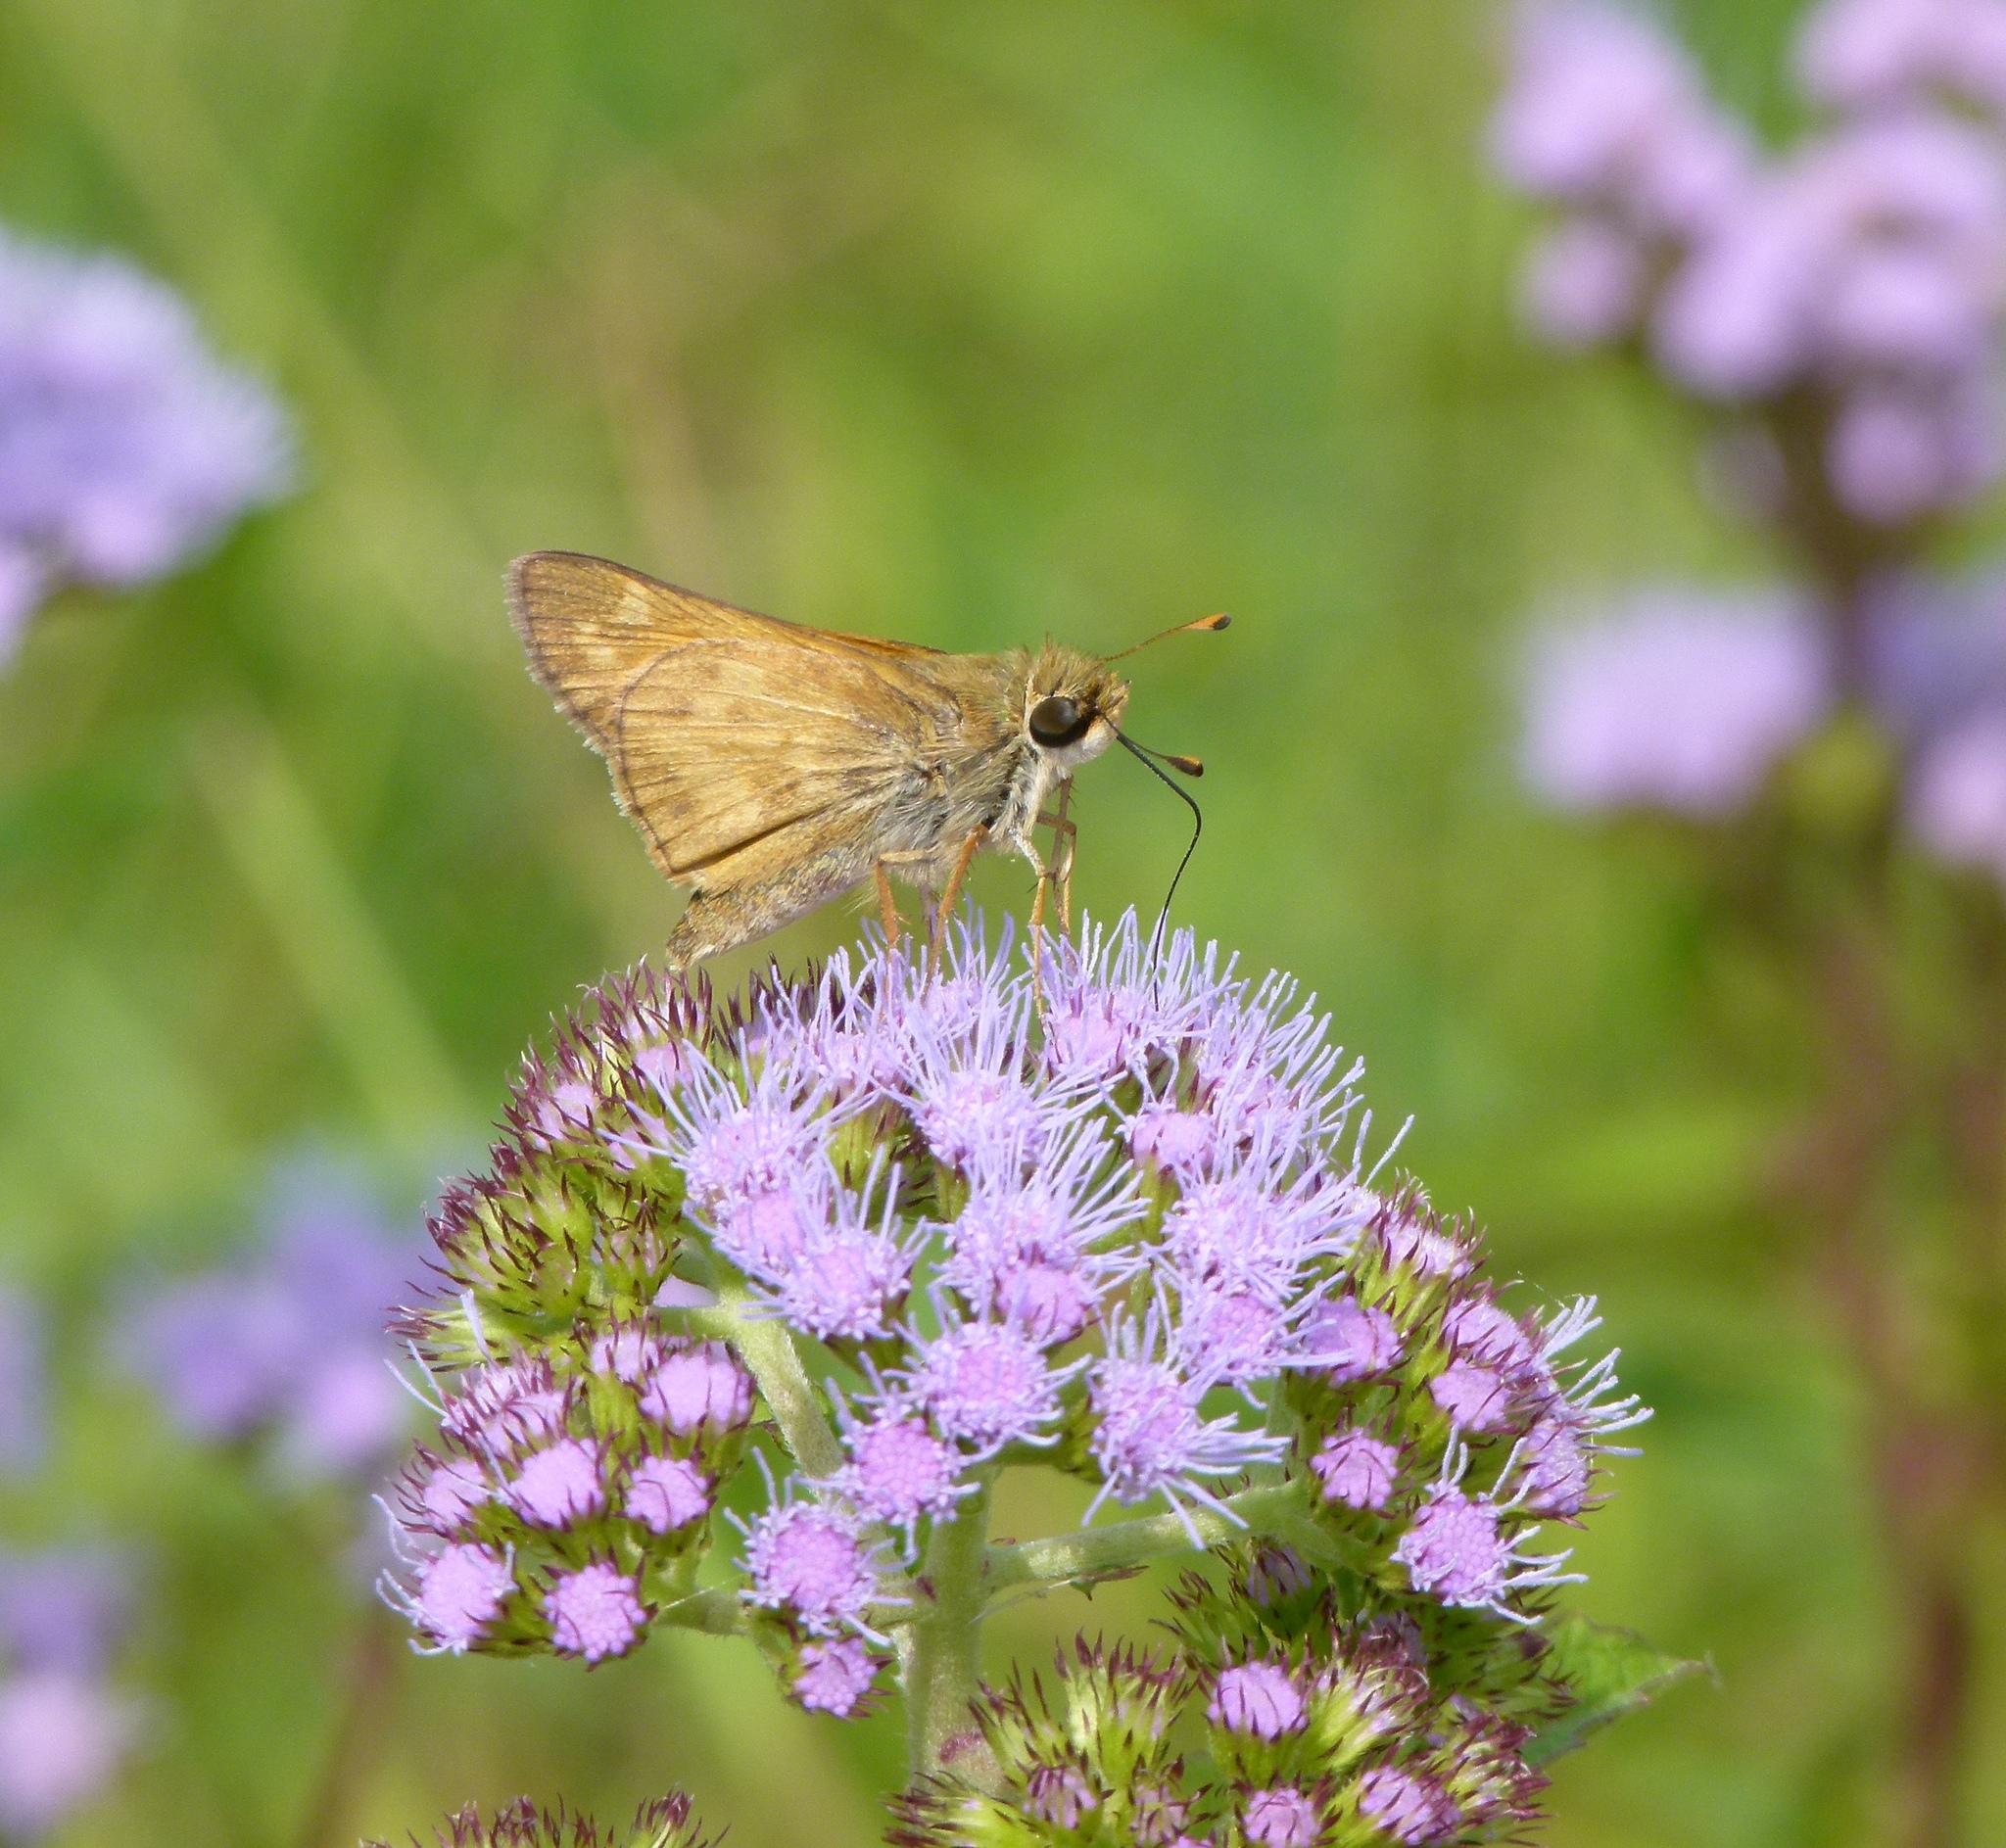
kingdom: Animalia
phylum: Arthropoda
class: Insecta
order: Lepidoptera
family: Hesperiidae
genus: Atalopedes
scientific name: Atalopedes
